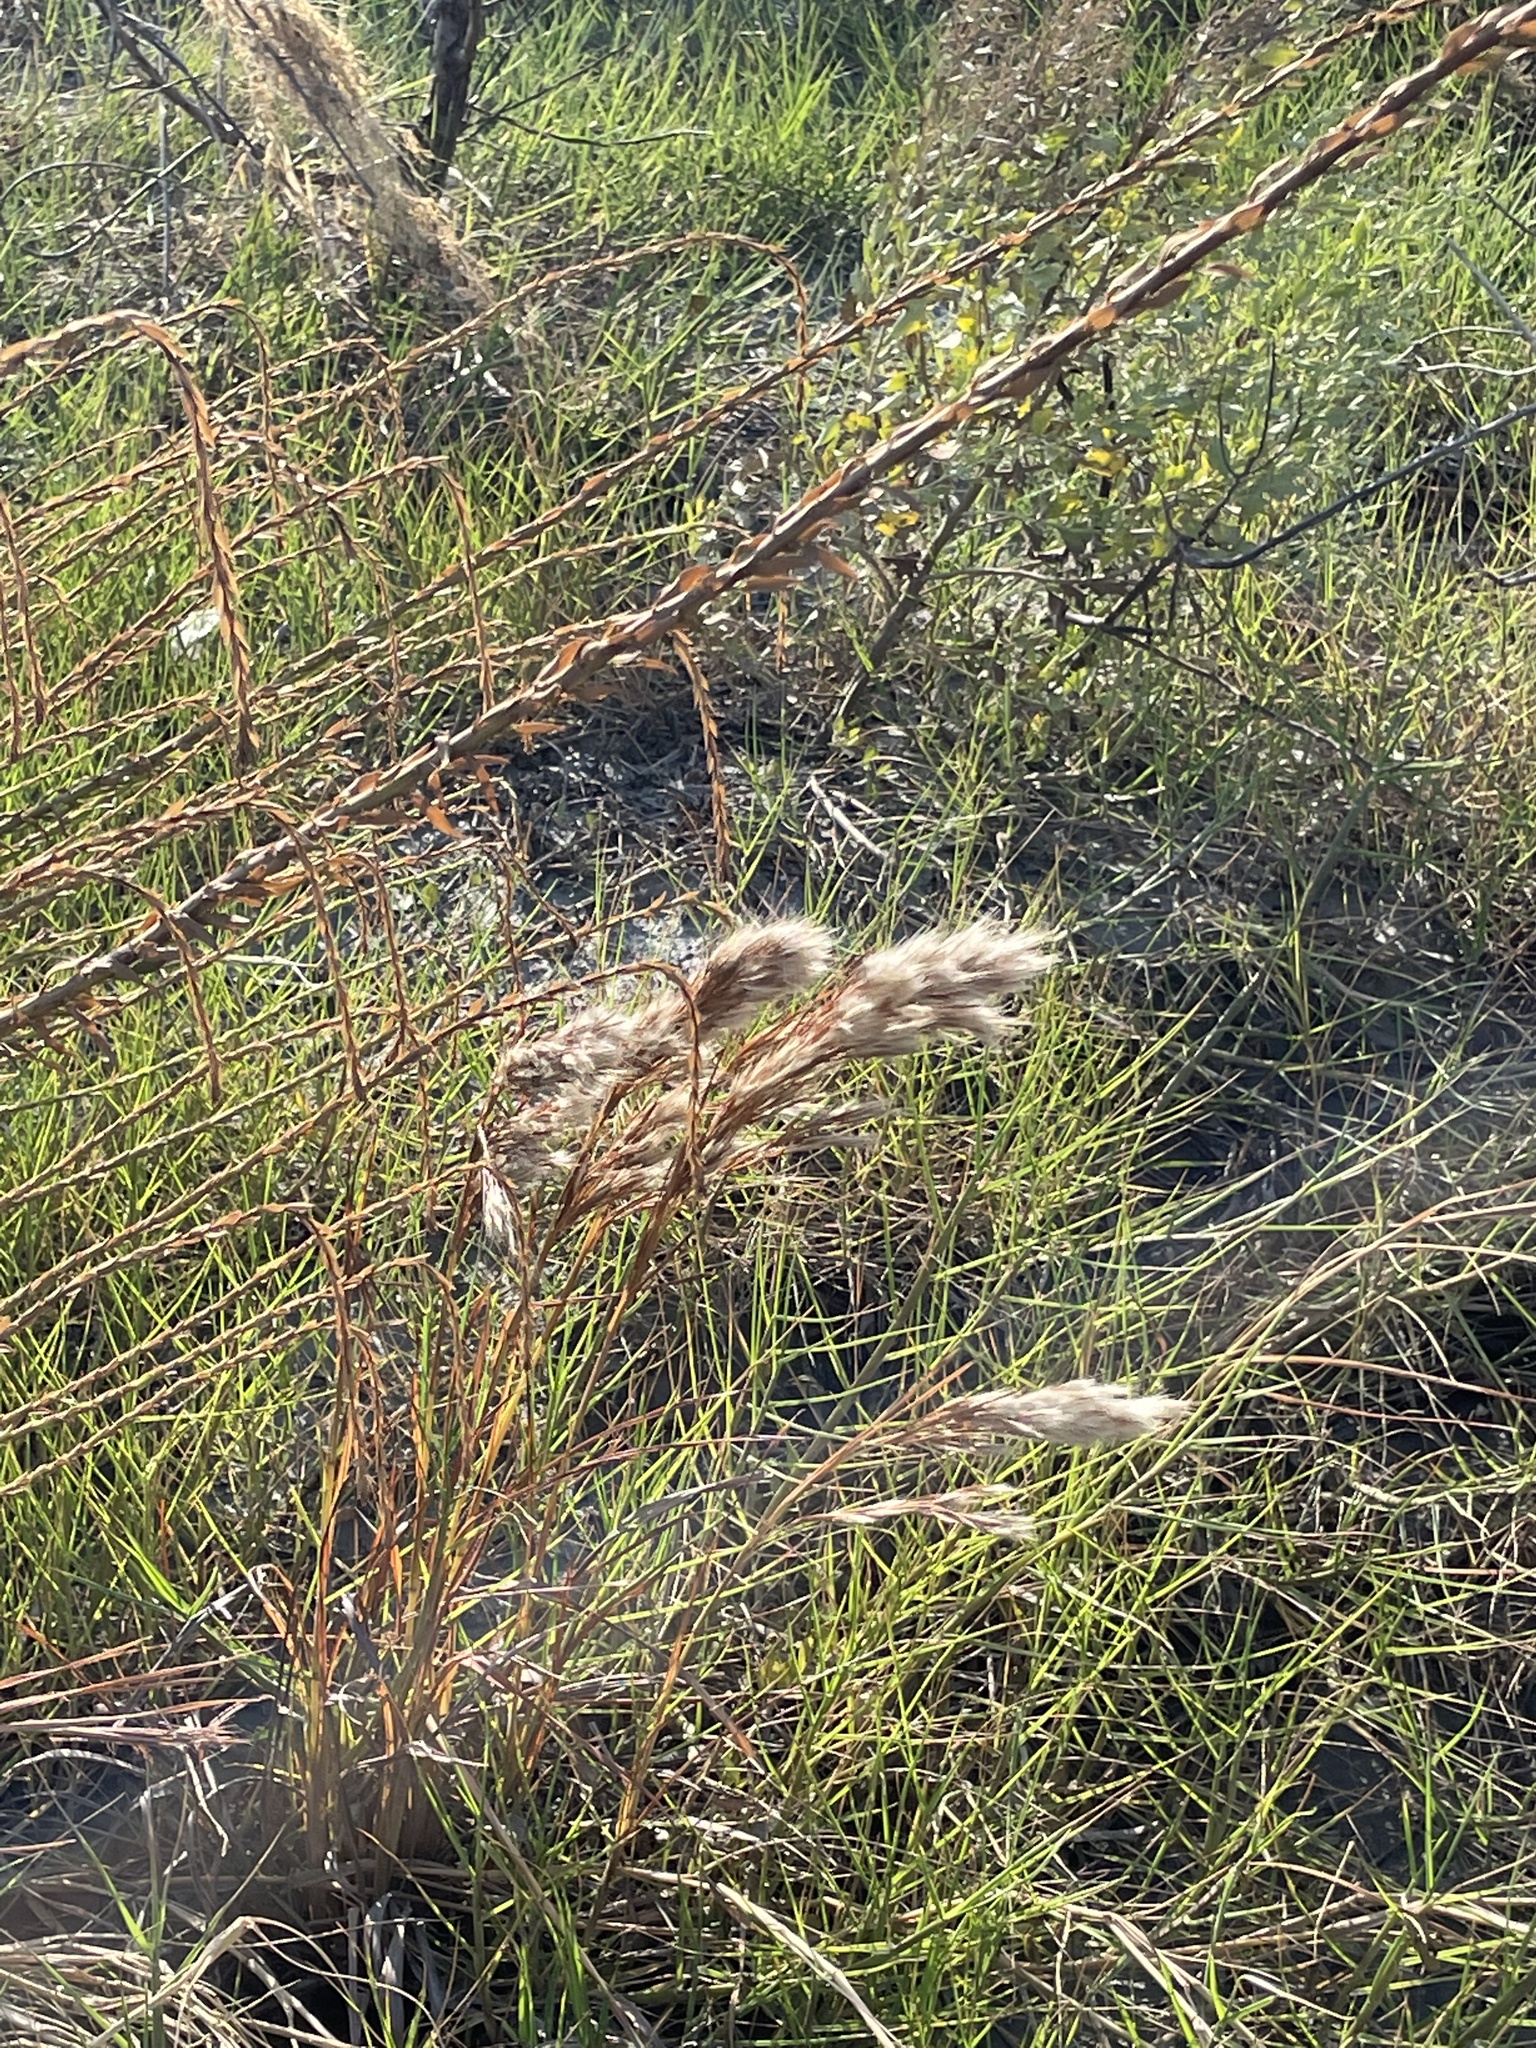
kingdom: Plantae
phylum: Tracheophyta
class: Liliopsida
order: Poales
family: Poaceae
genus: Andropogon
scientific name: Andropogon tenuispatheus
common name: Bushy bluestem
